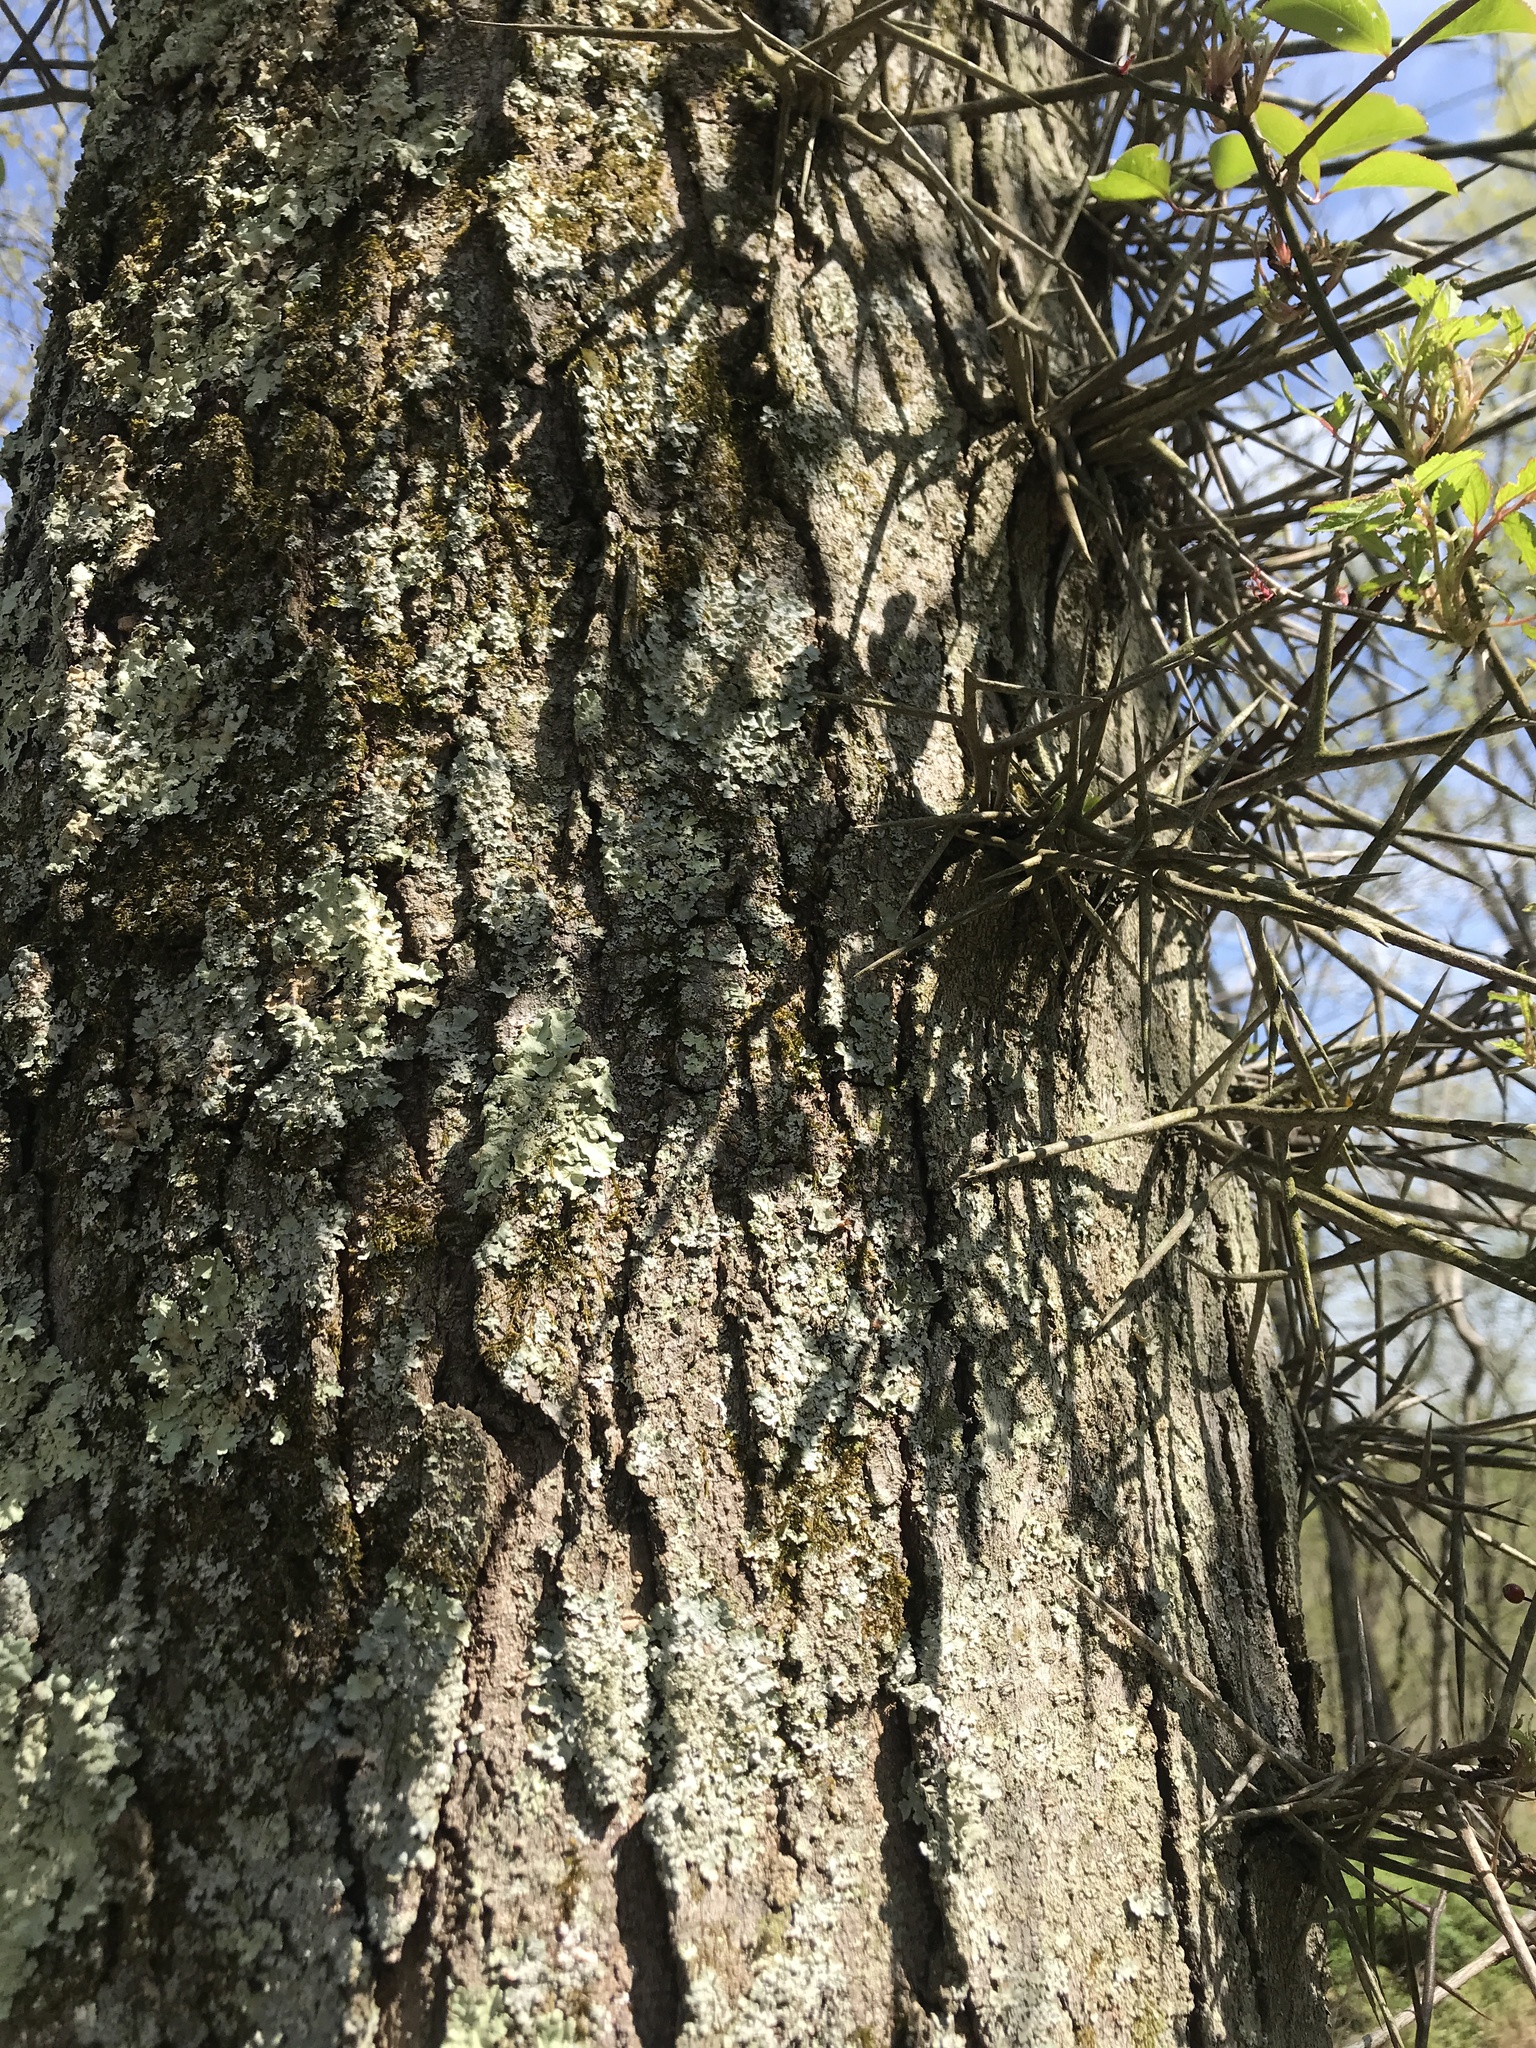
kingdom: Plantae
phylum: Tracheophyta
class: Magnoliopsida
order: Fabales
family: Fabaceae
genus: Gleditsia
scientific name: Gleditsia triacanthos
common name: Common honeylocust
